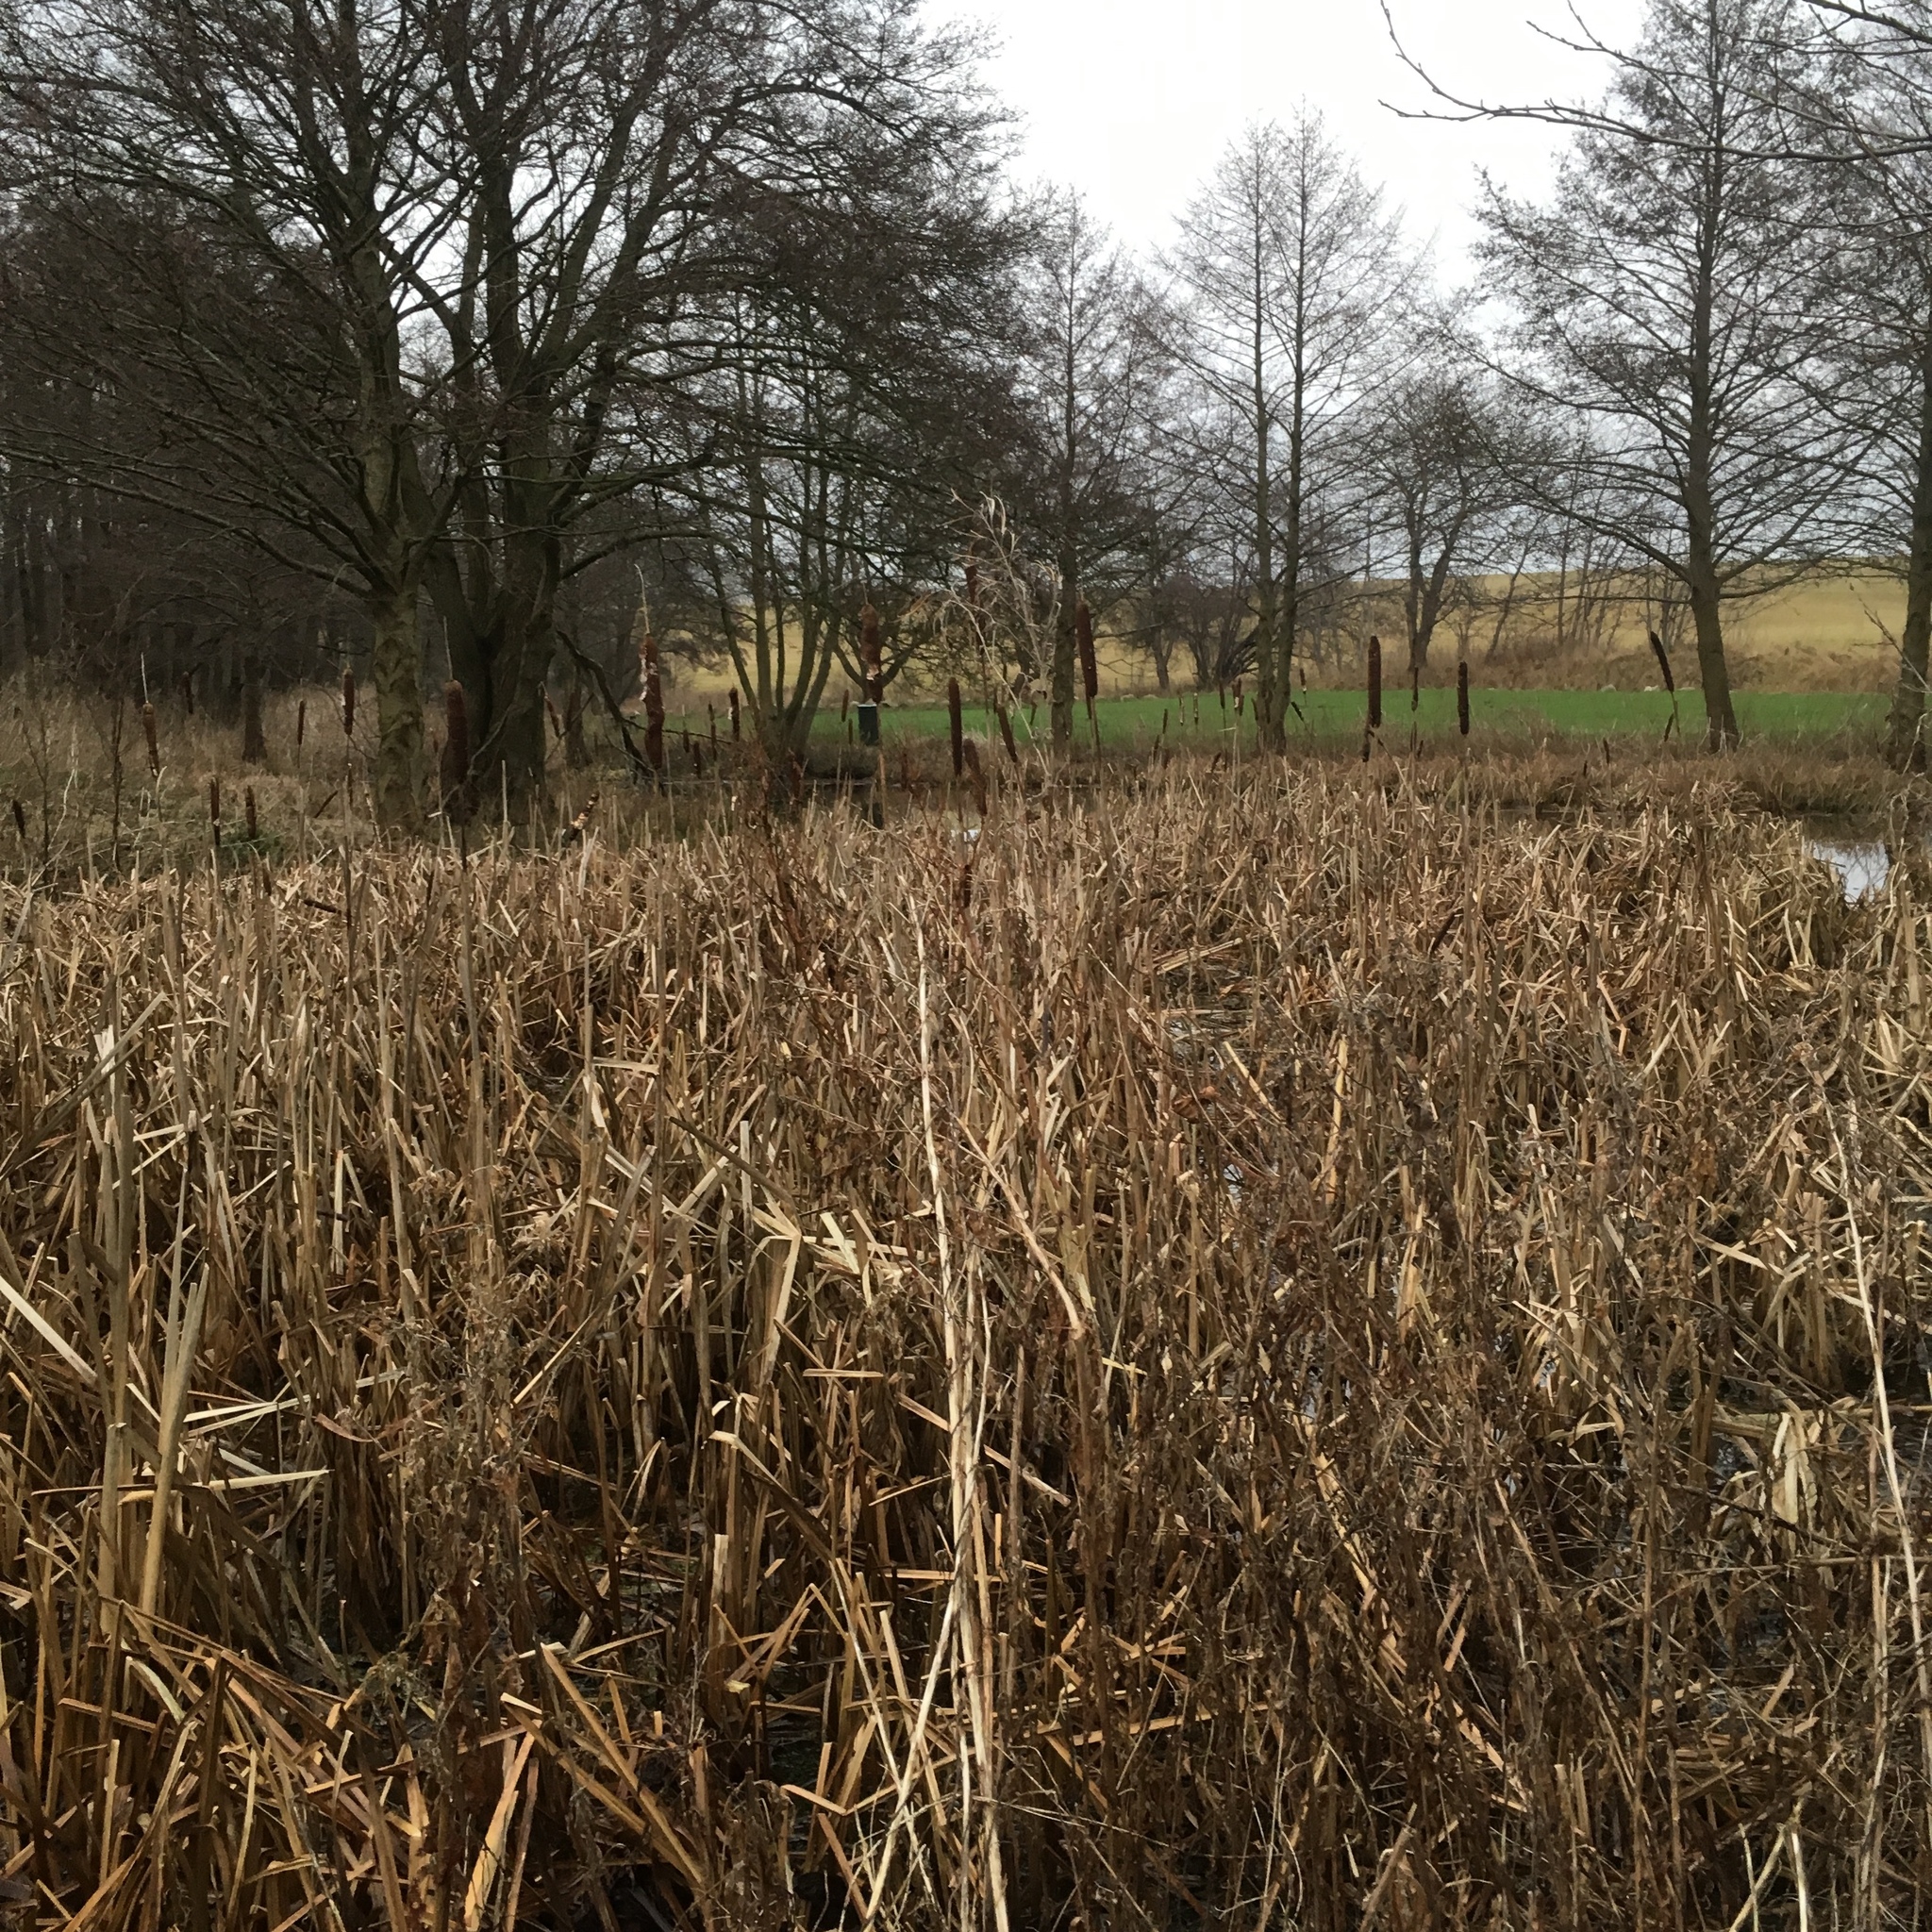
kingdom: Plantae
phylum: Tracheophyta
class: Liliopsida
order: Poales
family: Typhaceae
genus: Typha
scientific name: Typha latifolia
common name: Broadleaf cattail
